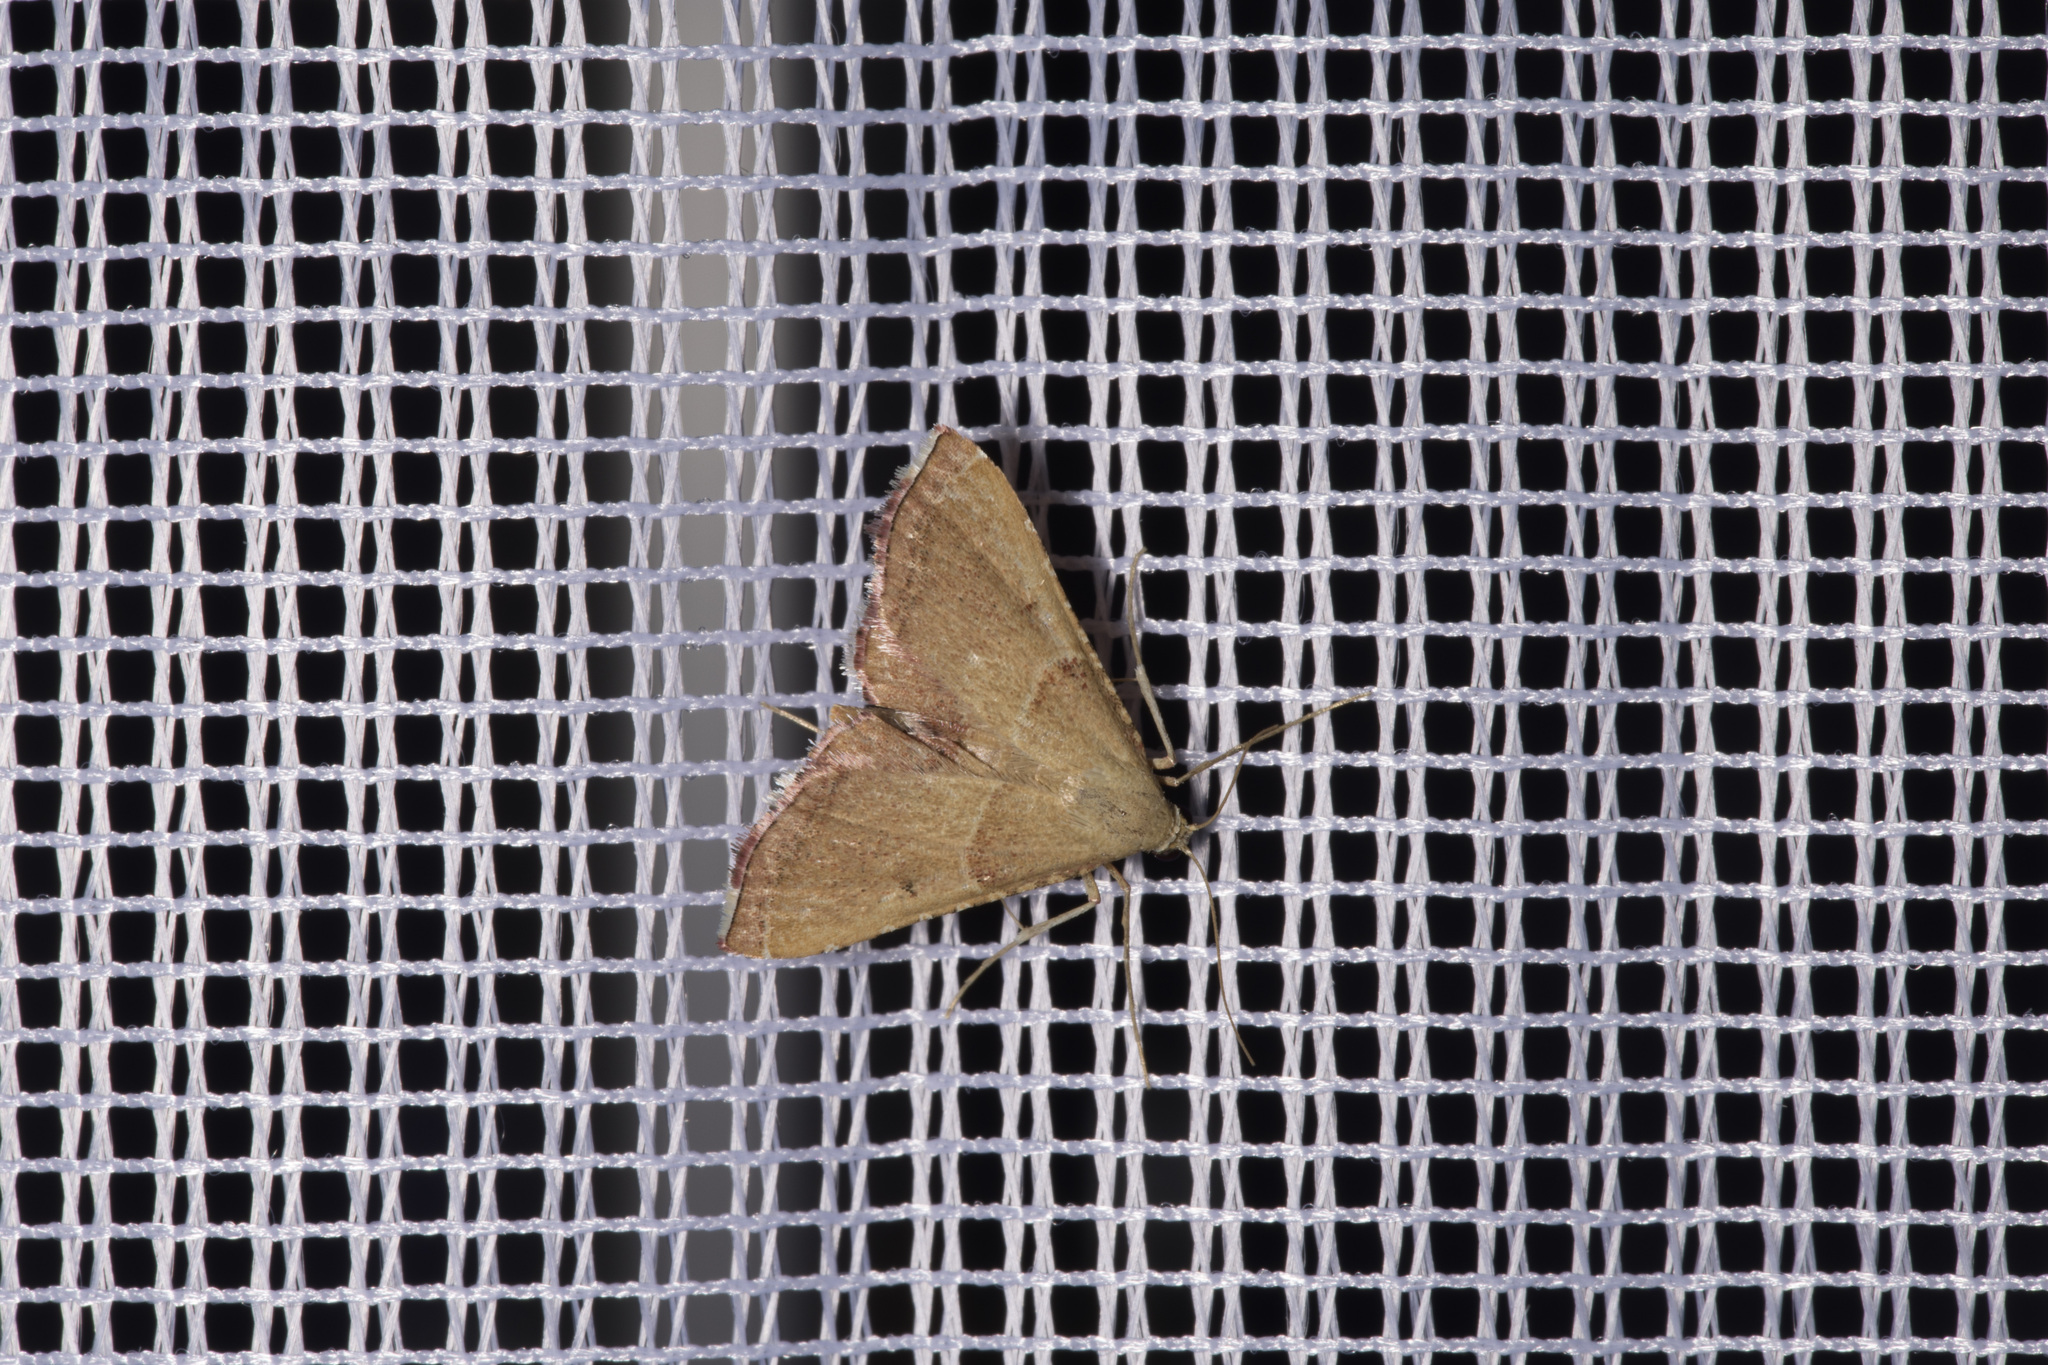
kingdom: Animalia
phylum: Arthropoda
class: Insecta
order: Lepidoptera
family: Pyralidae
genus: Endotricha
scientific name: Endotricha flammealis
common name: Rosy tabby
